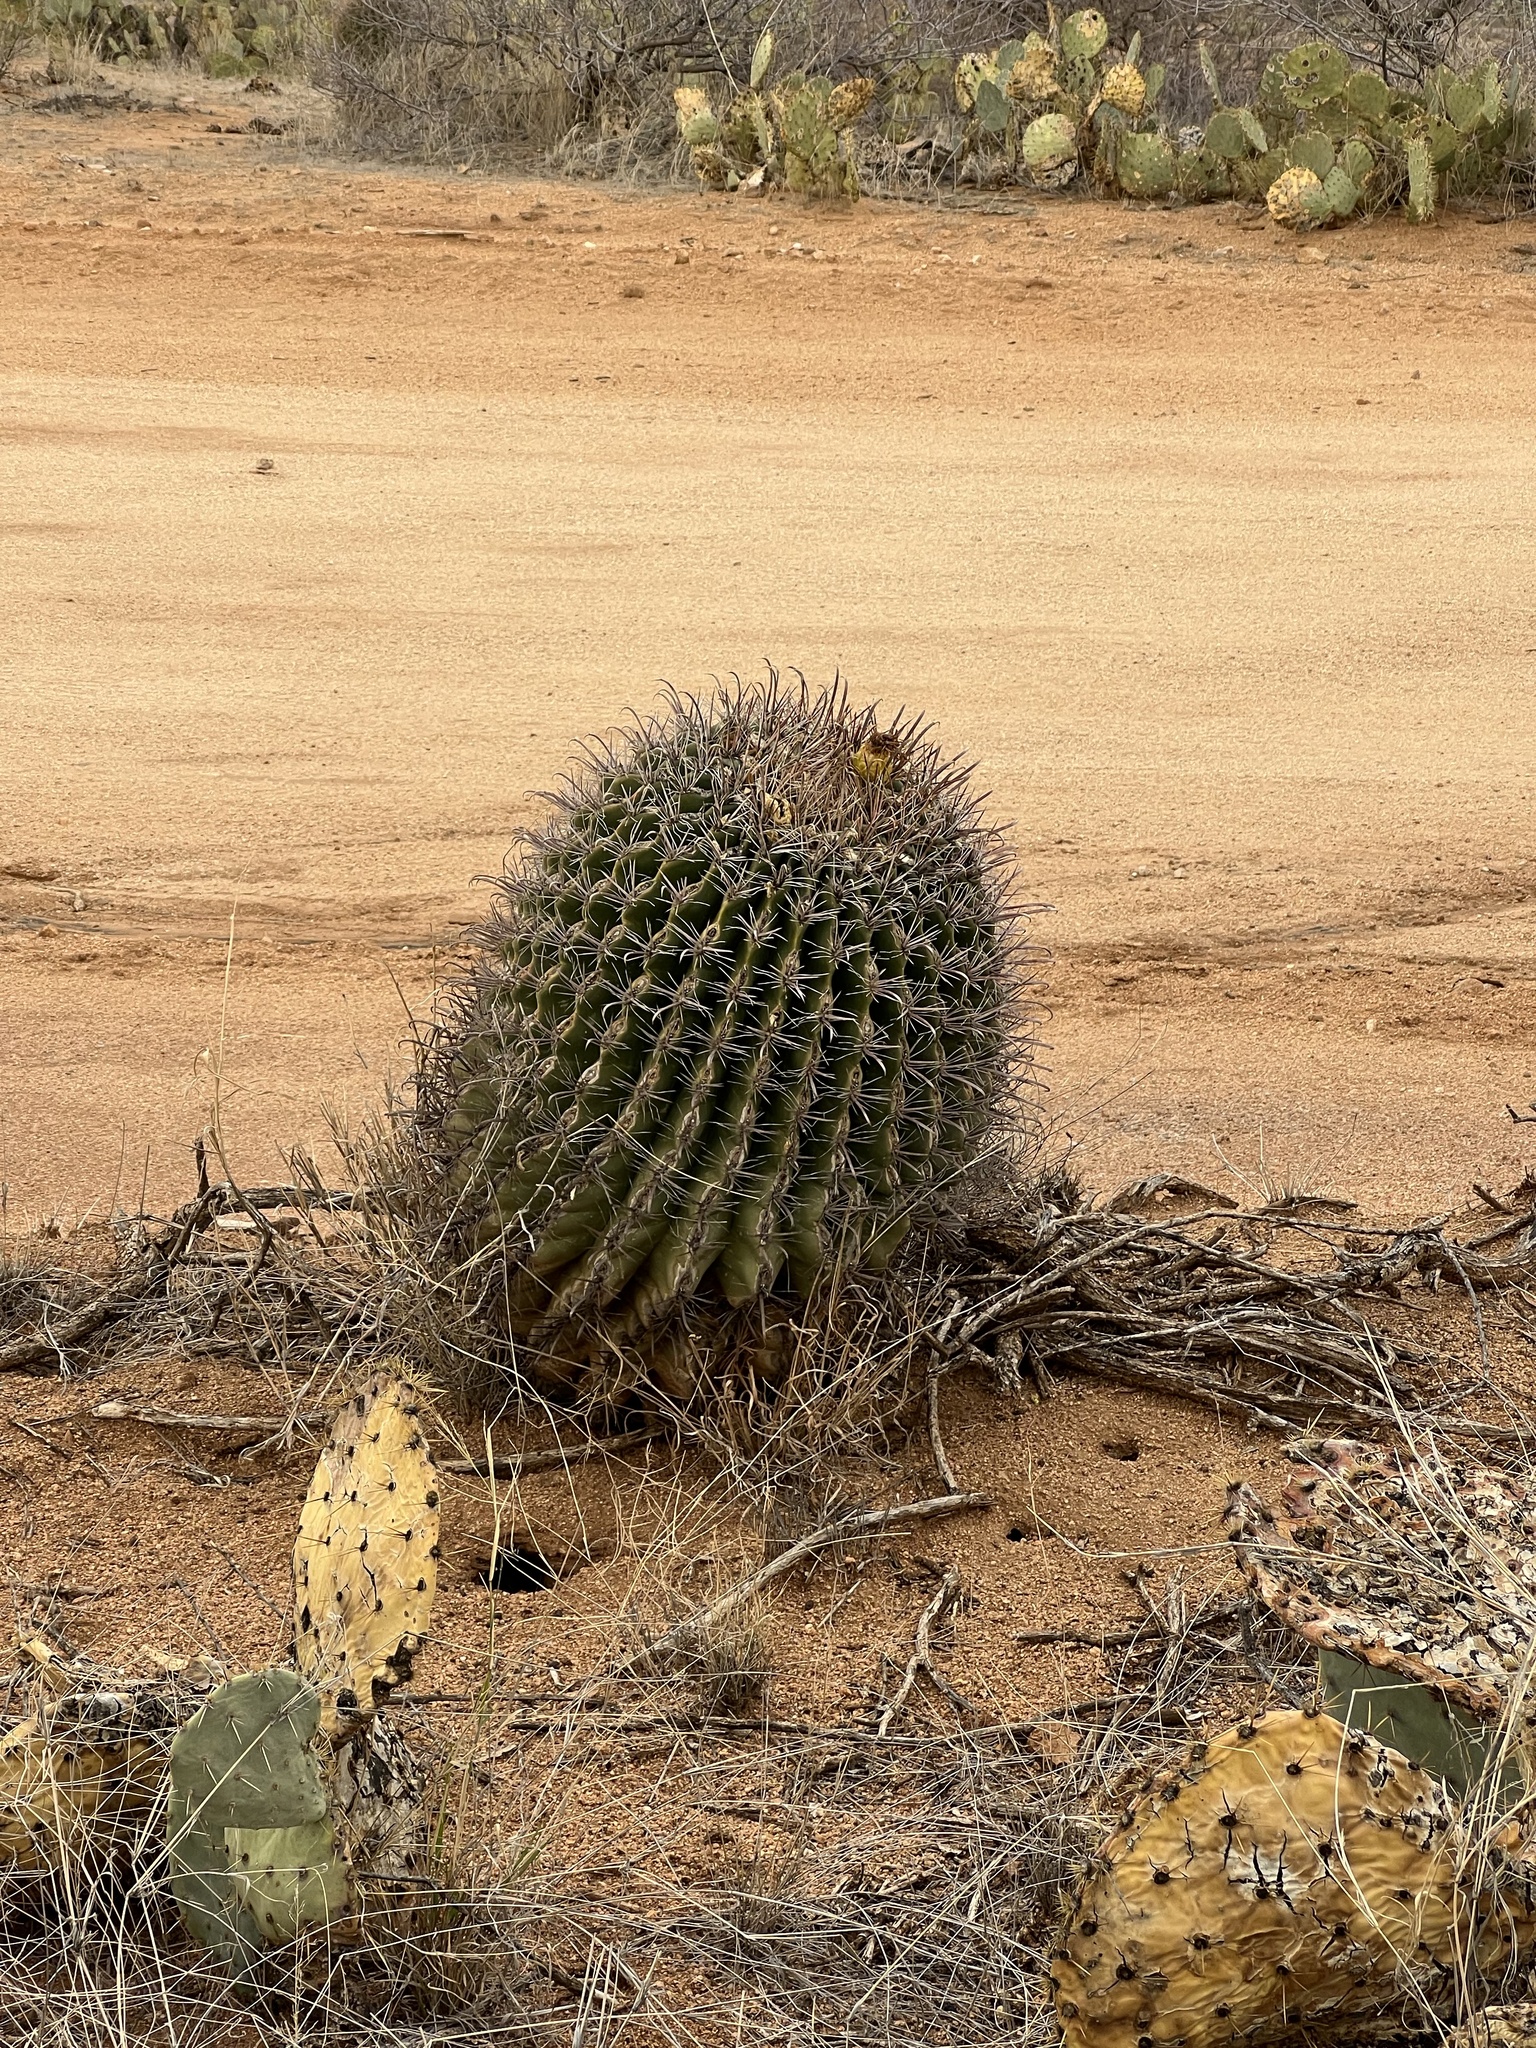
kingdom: Plantae
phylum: Tracheophyta
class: Magnoliopsida
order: Caryophyllales
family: Cactaceae
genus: Ferocactus
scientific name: Ferocactus wislizeni
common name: Candy barrel cactus
